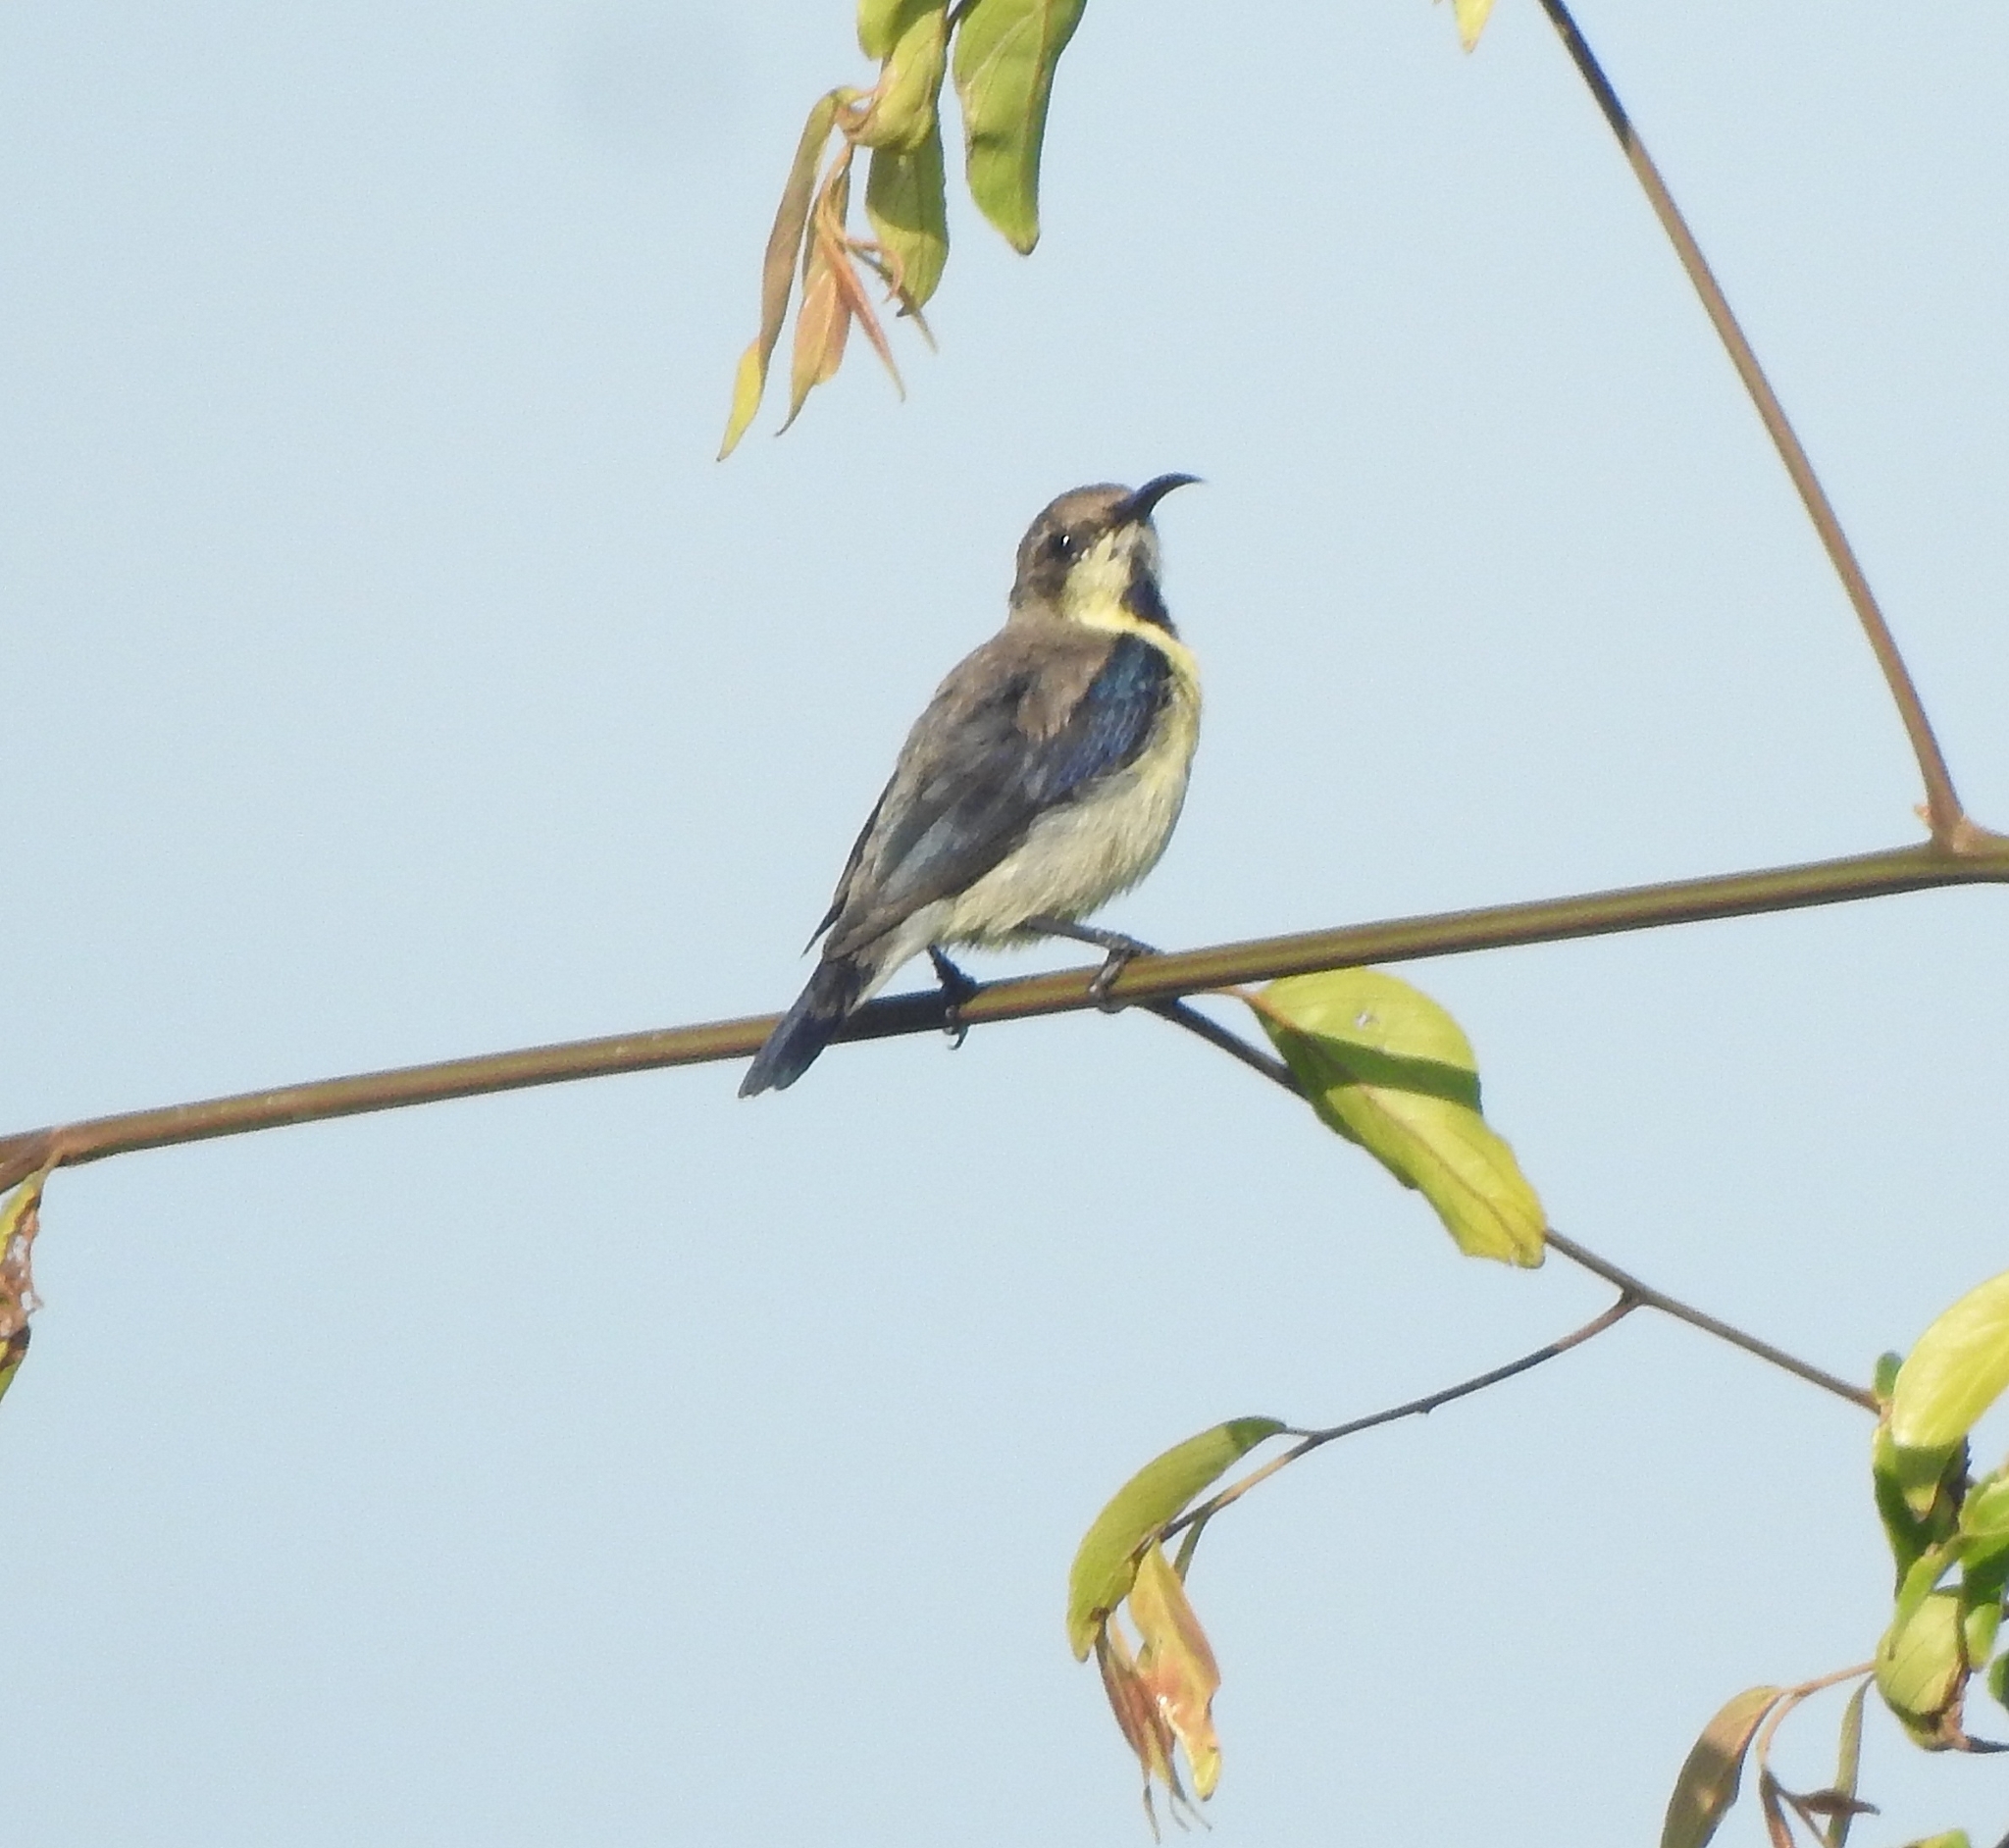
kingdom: Animalia
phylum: Chordata
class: Aves
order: Passeriformes
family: Nectariniidae
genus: Cinnyris
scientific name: Cinnyris asiaticus
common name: Purple sunbird
